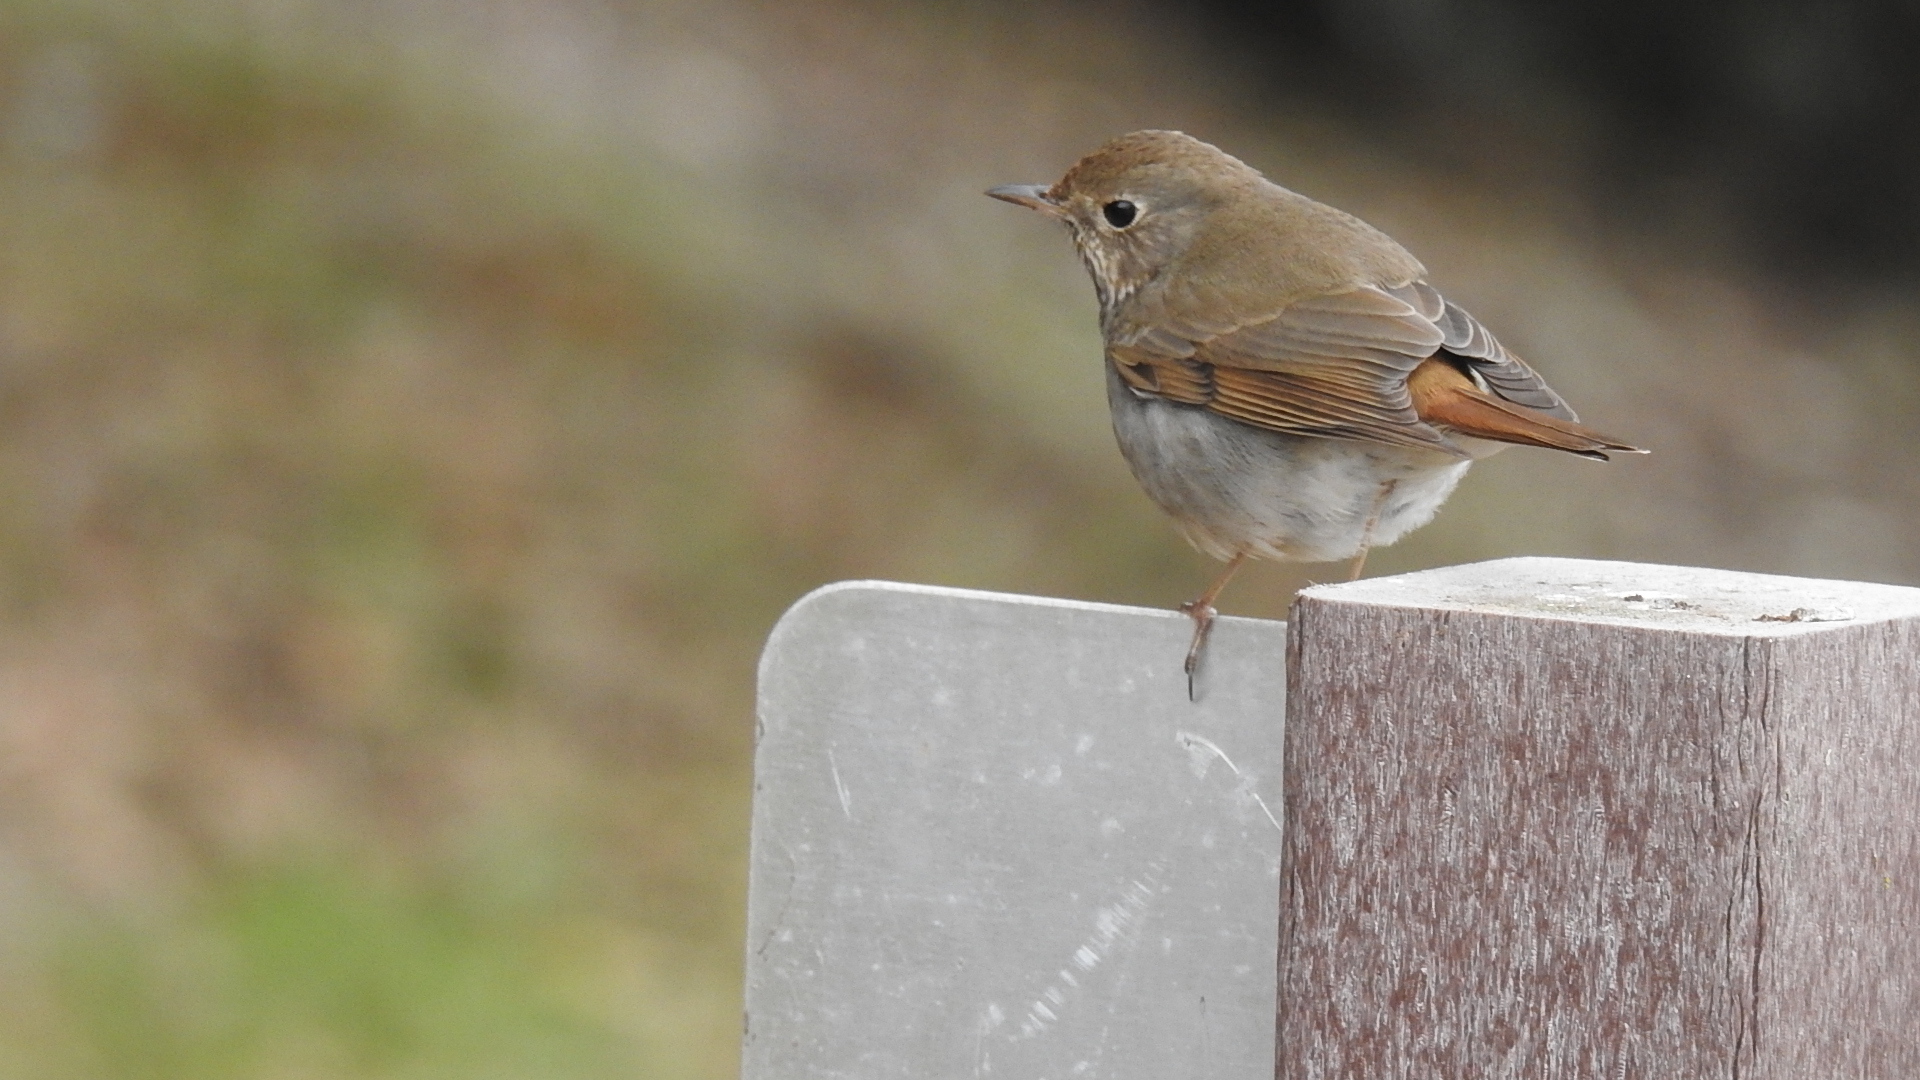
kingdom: Animalia
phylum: Chordata
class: Aves
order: Passeriformes
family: Turdidae
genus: Catharus
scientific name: Catharus guttatus
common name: Hermit thrush
